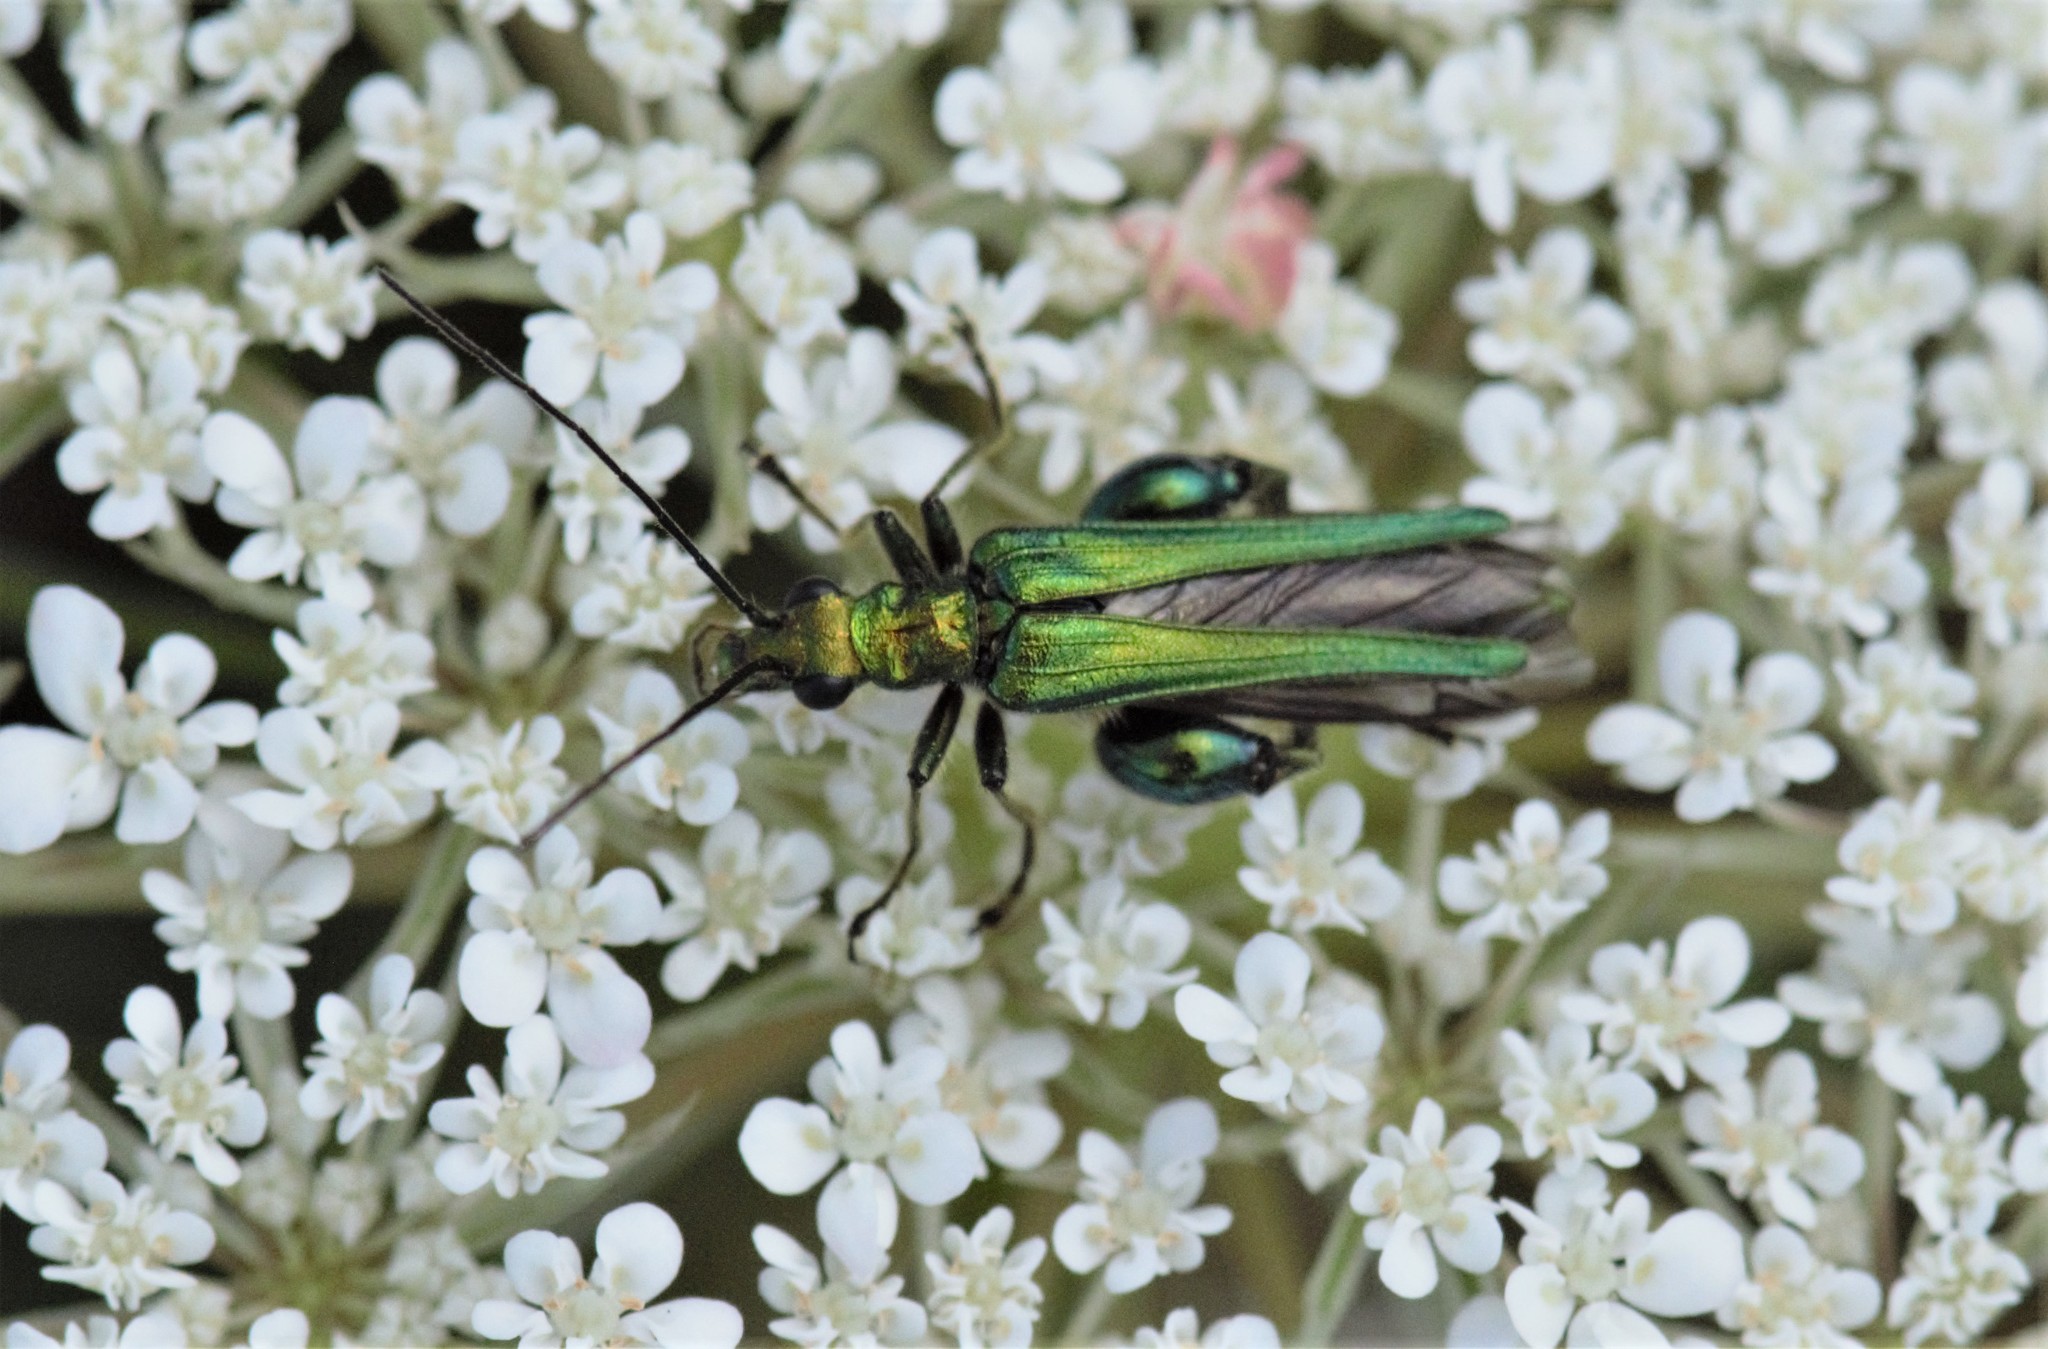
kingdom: Animalia
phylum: Arthropoda
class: Insecta
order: Coleoptera
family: Oedemeridae
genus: Oedemera
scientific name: Oedemera nobilis
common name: Swollen-thighed beetle
